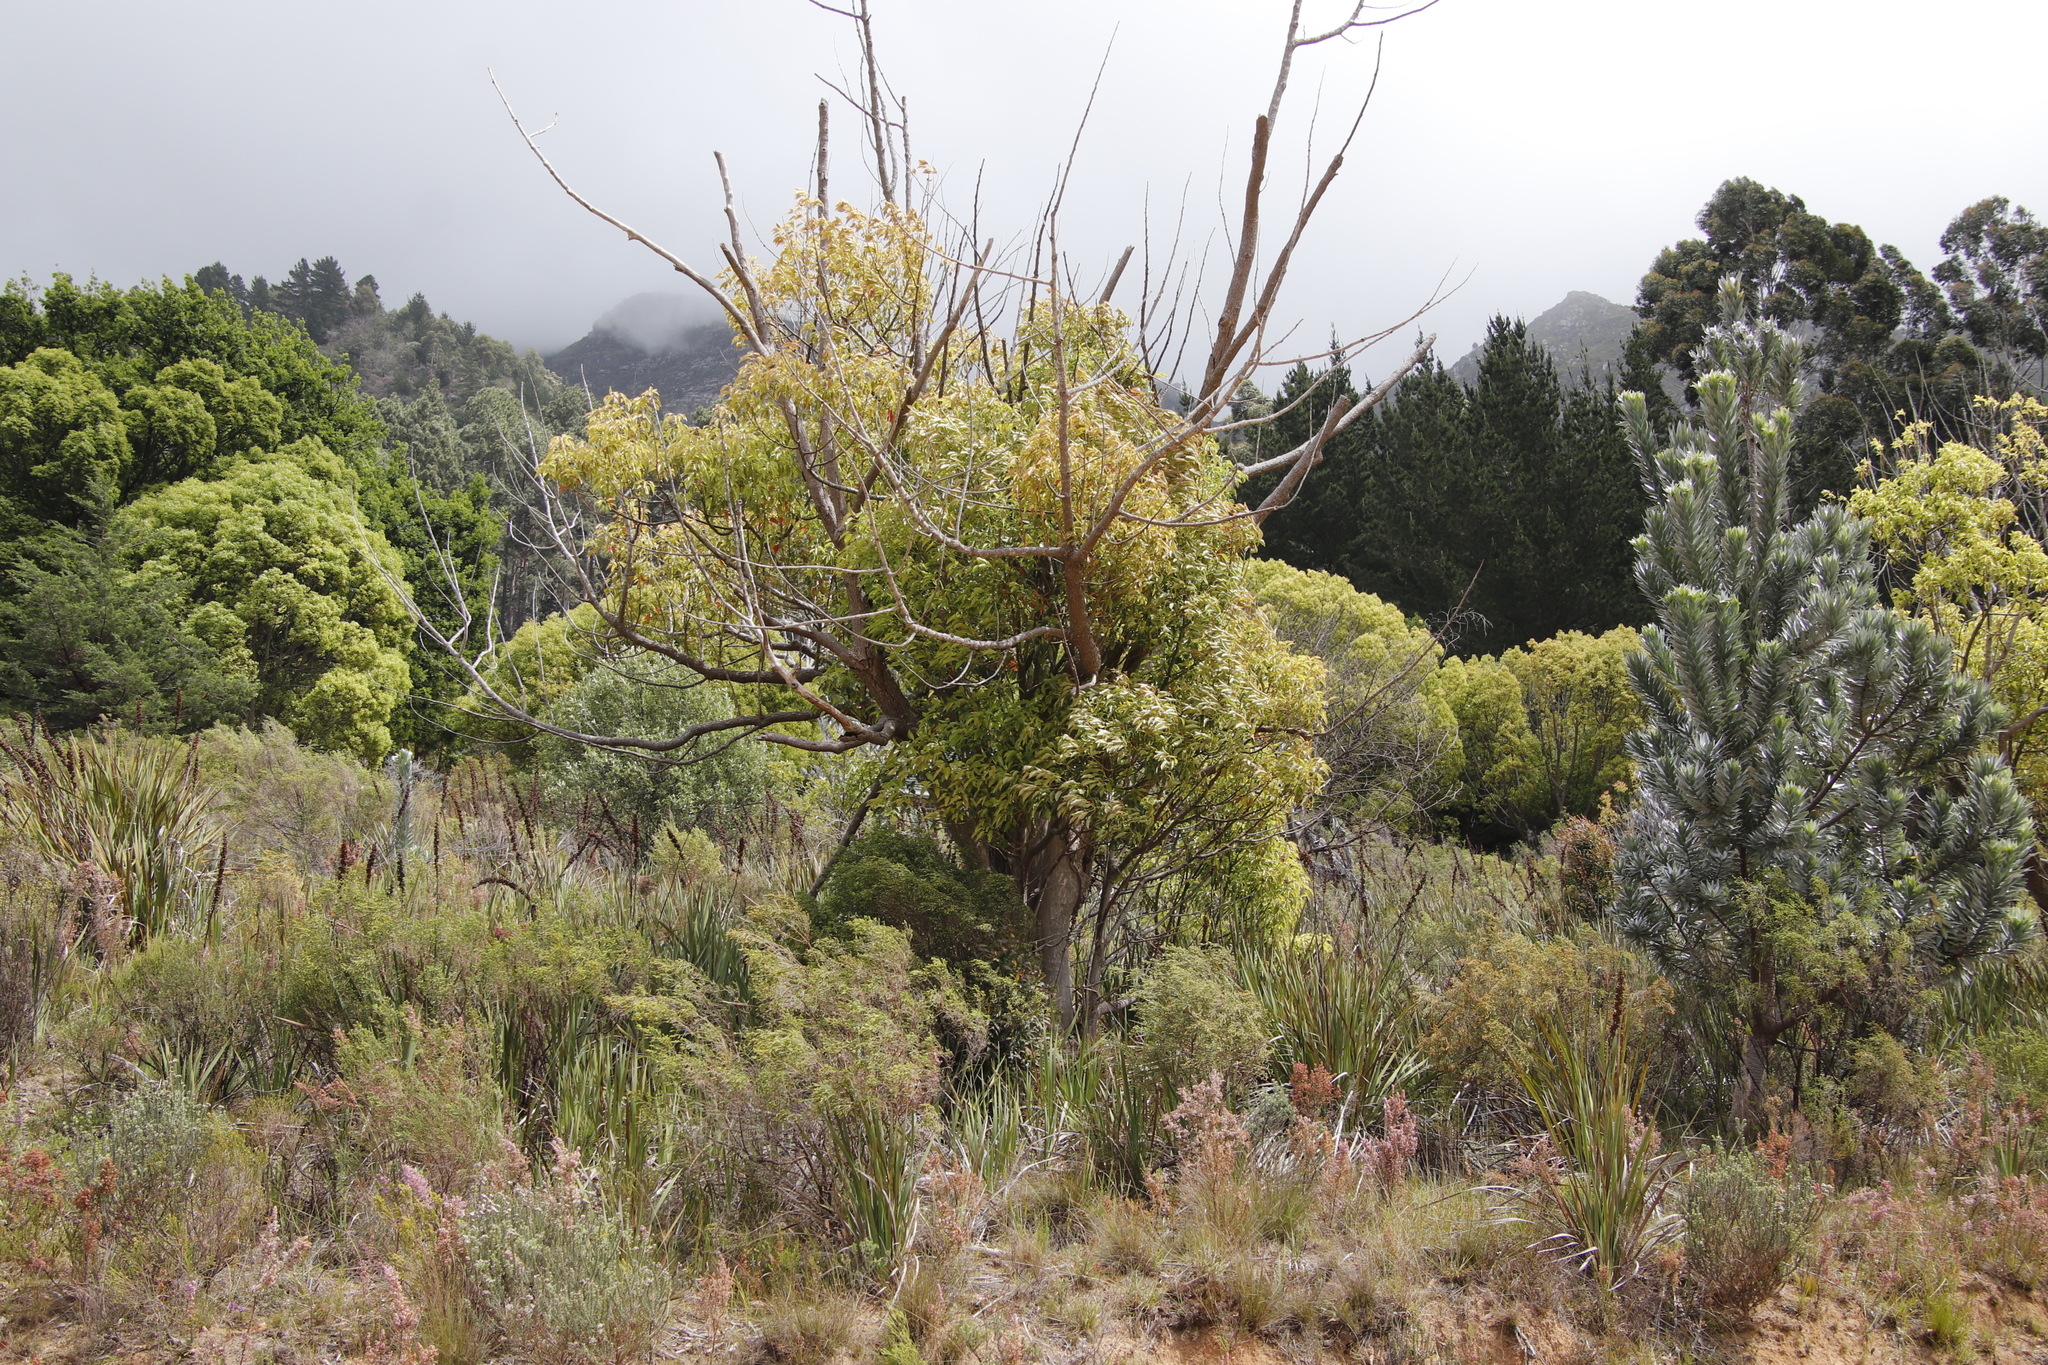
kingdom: Plantae
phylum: Tracheophyta
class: Magnoliopsida
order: Laurales
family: Lauraceae
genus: Cinnamomum
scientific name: Cinnamomum camphora
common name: Camphortree
